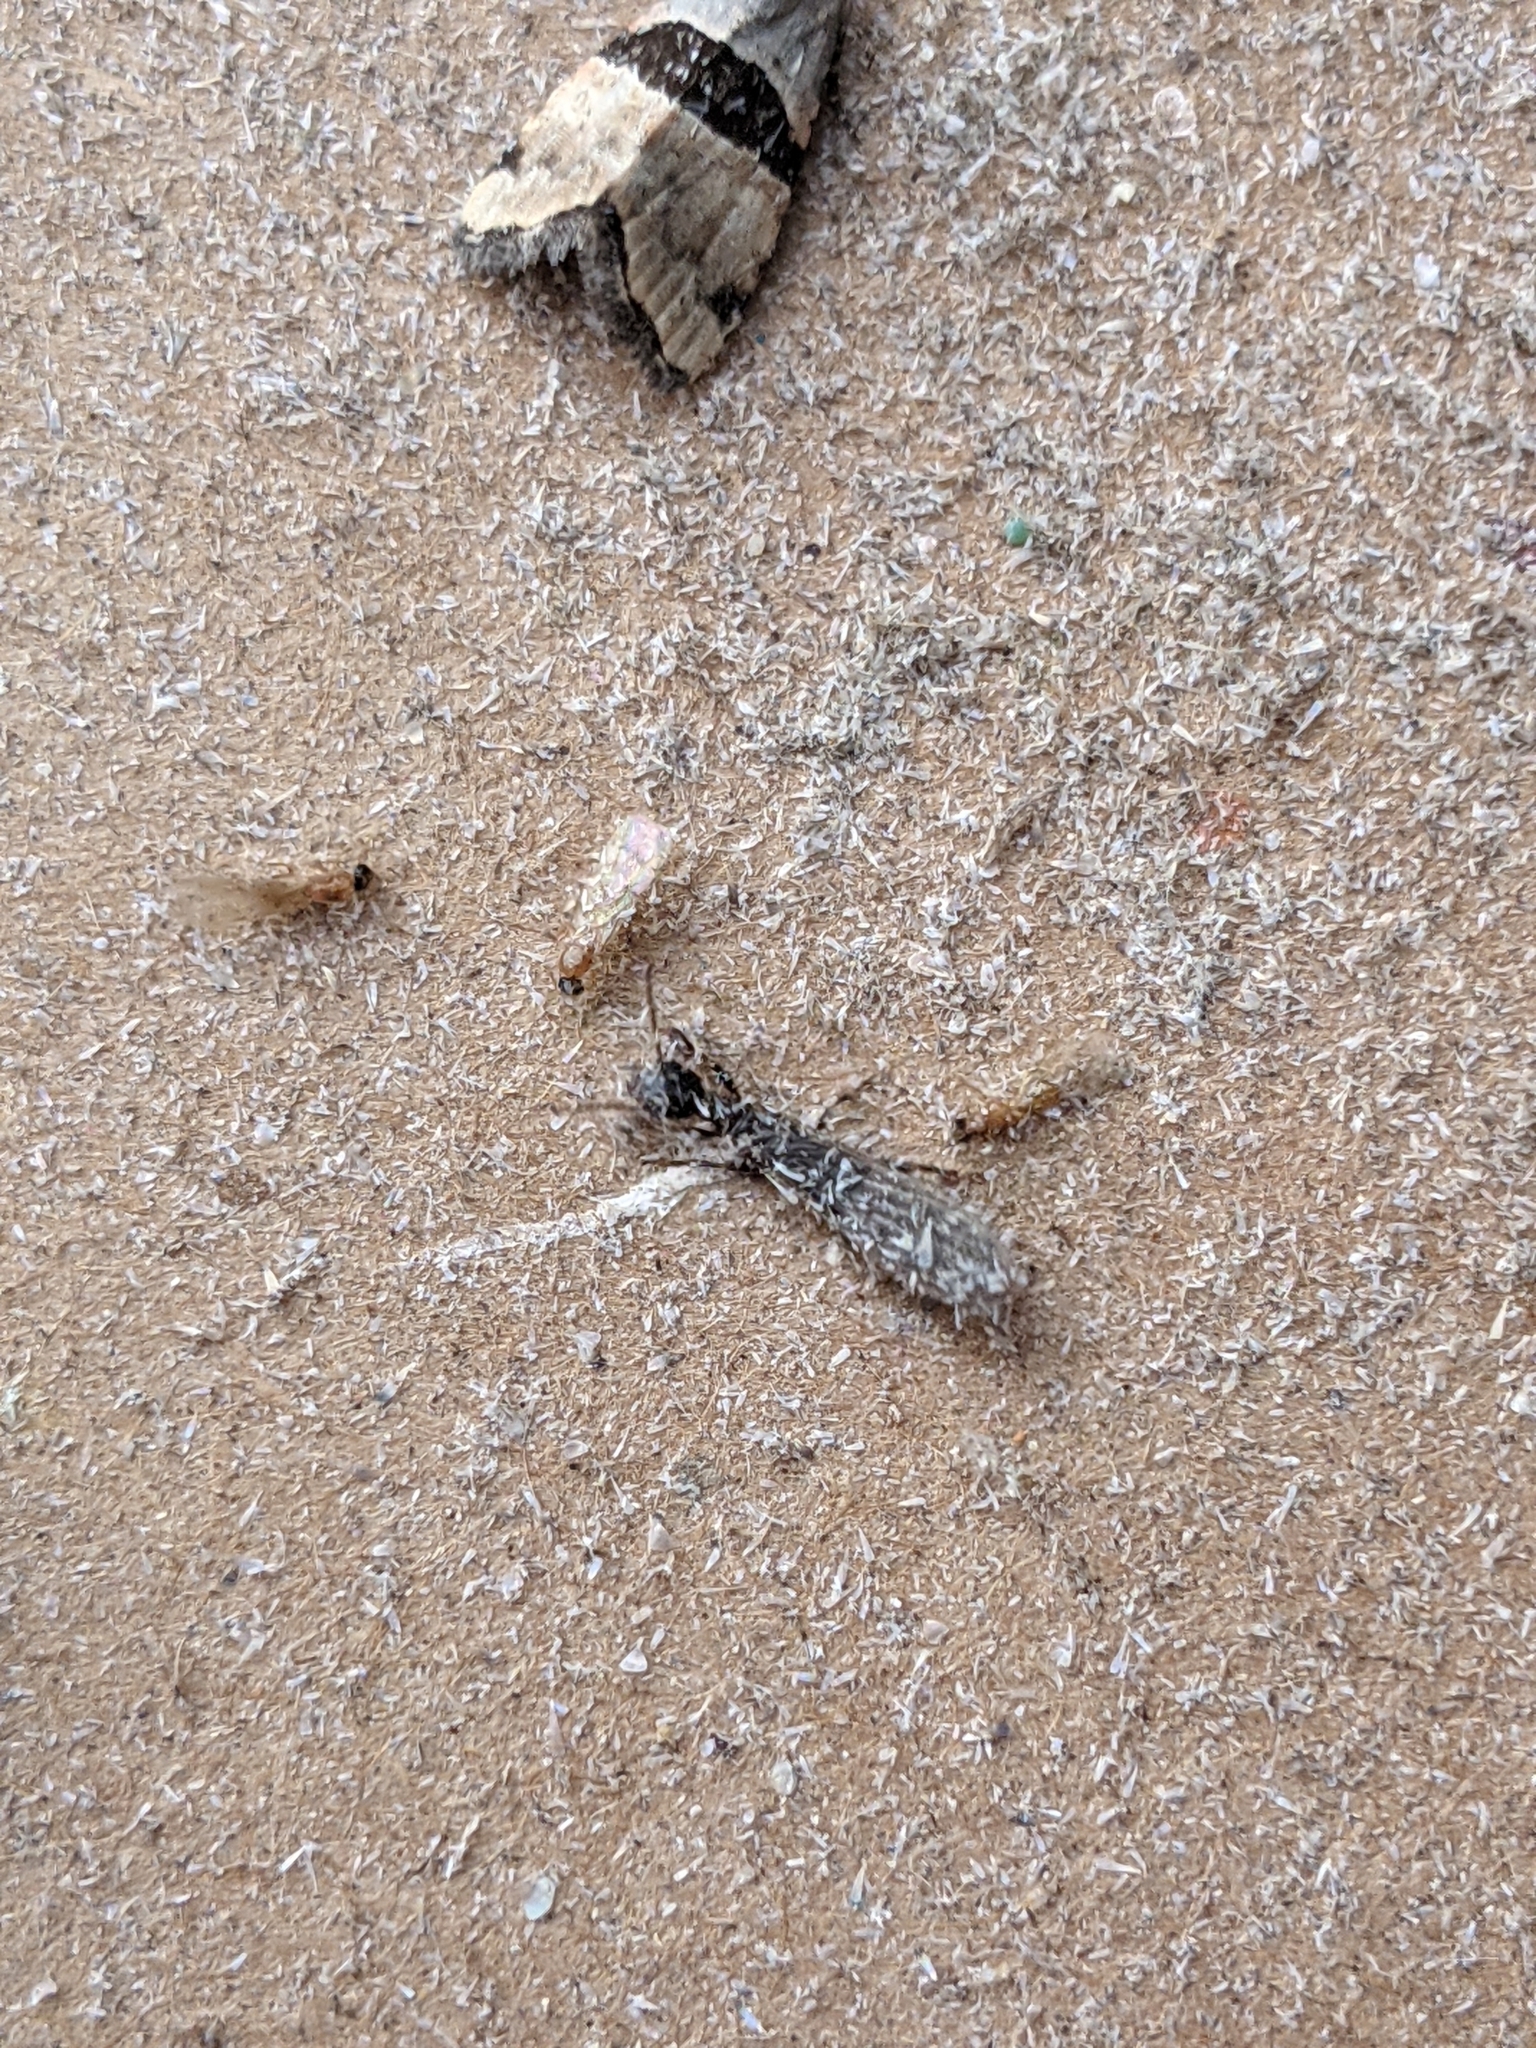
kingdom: Animalia
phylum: Arthropoda
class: Insecta
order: Embioptera
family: Oligotomidae
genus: Oligotoma
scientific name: Oligotoma nigra
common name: Black webspinner
